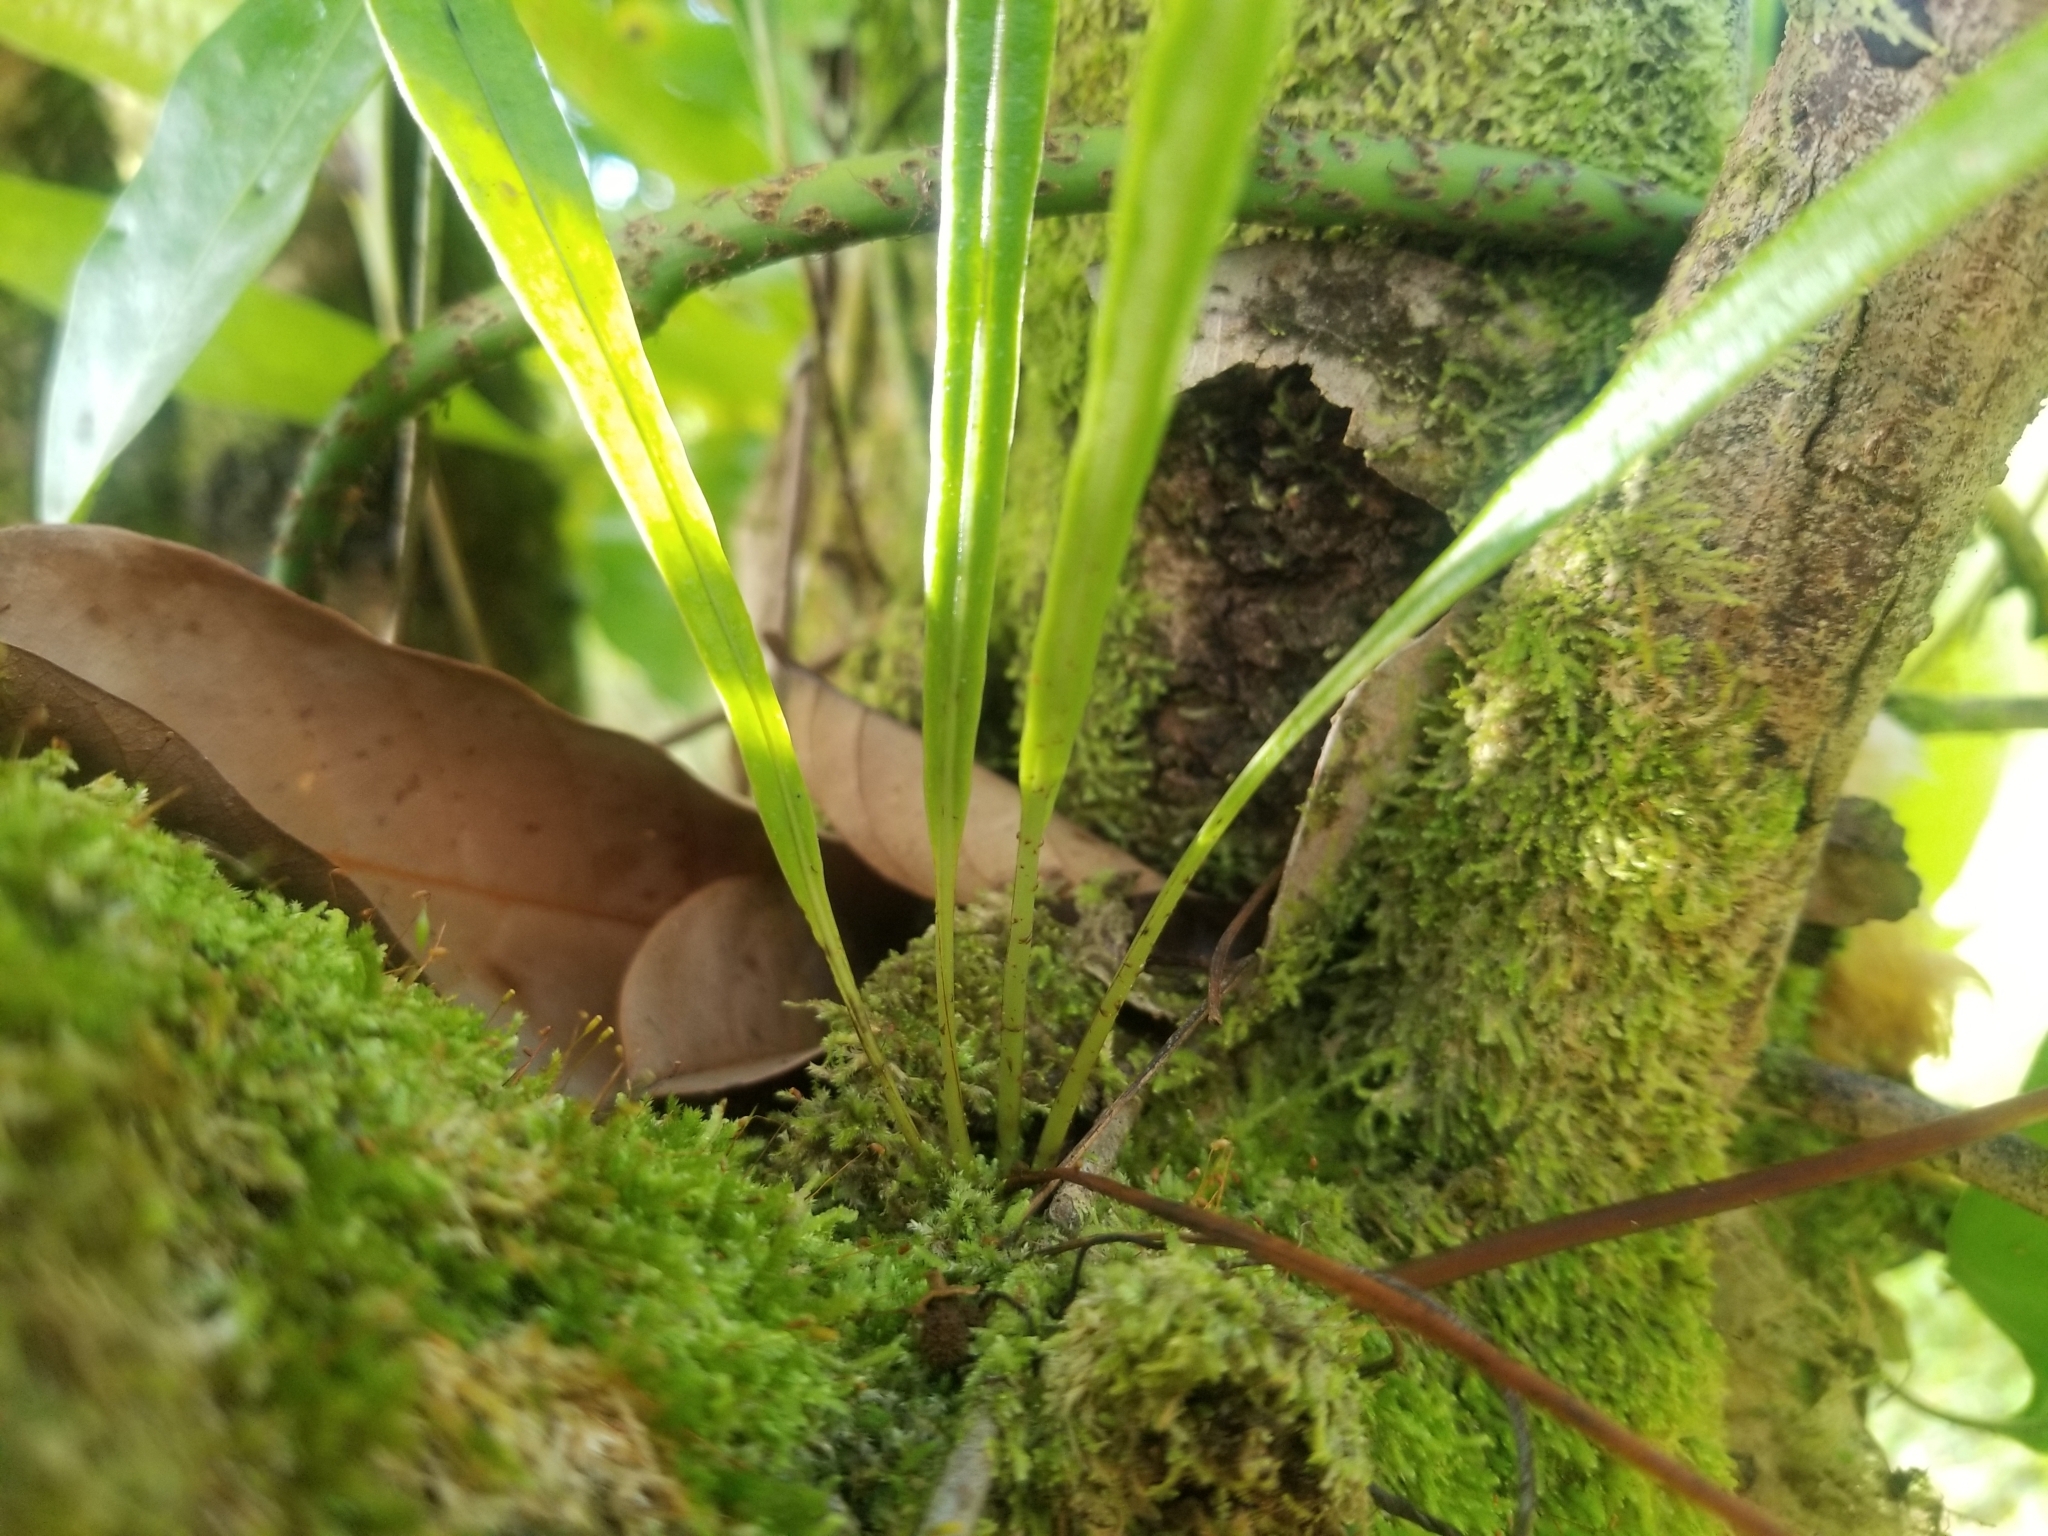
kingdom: Plantae
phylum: Tracheophyta
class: Polypodiopsida
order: Polypodiales
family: Polypodiaceae
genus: Lepisorus
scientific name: Lepisorus thunbergianus
